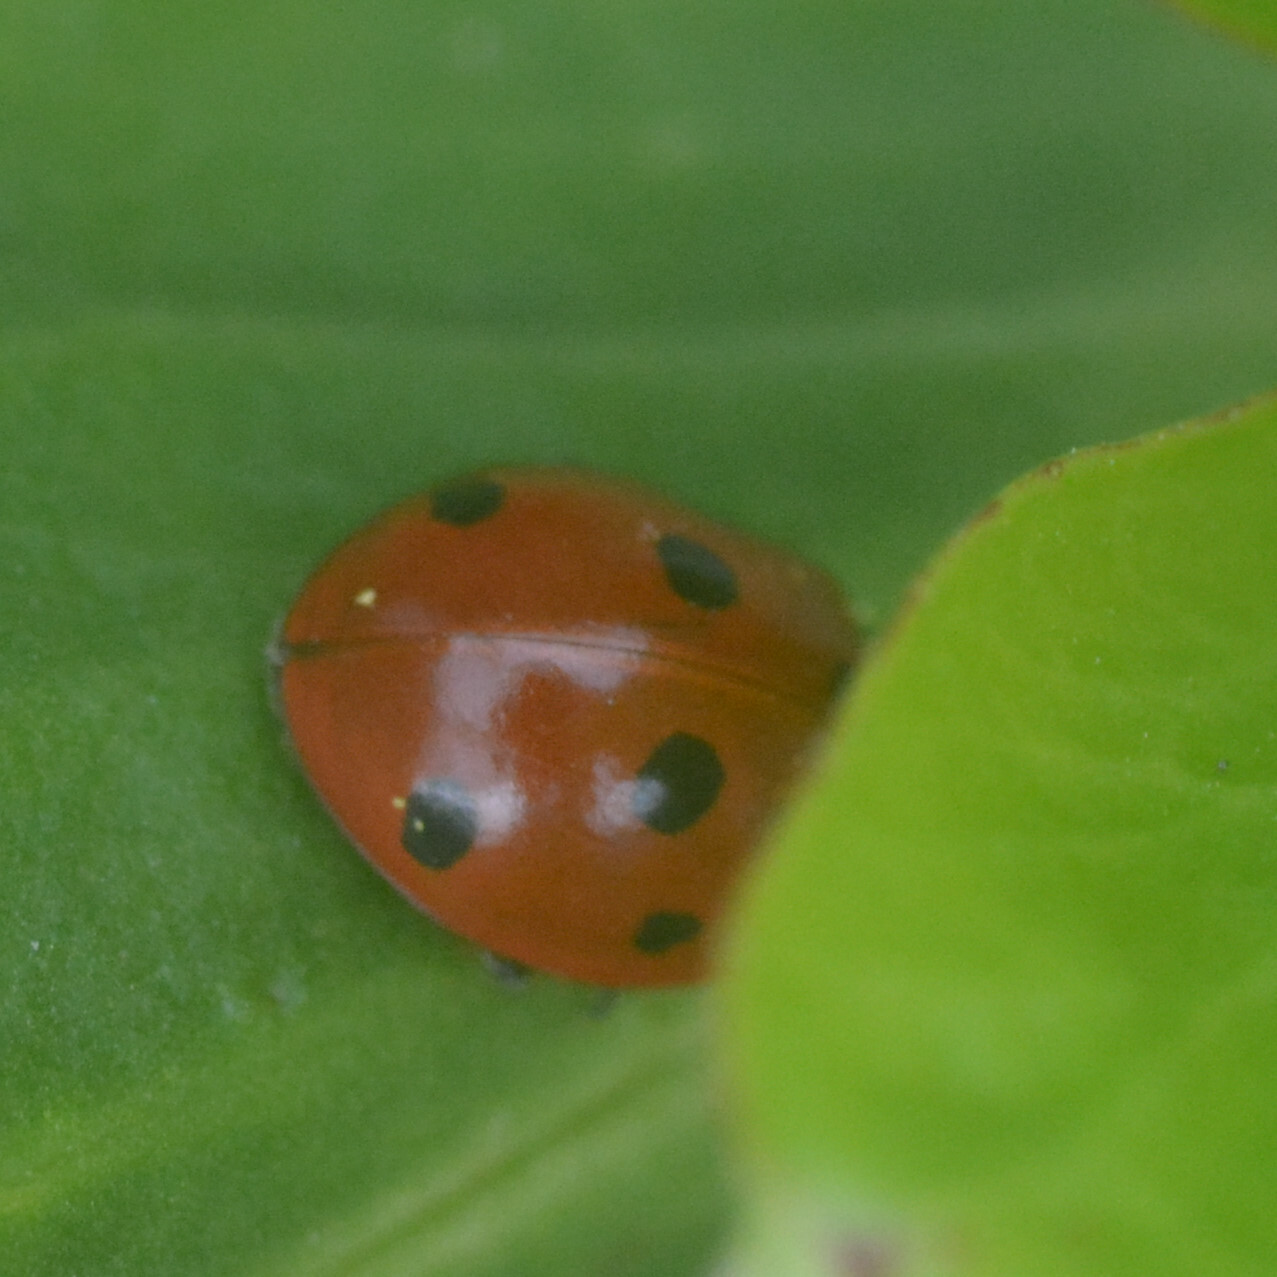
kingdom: Animalia
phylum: Arthropoda
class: Insecta
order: Coleoptera
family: Coccinellidae
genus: Coccinella
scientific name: Coccinella septempunctata
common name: Sevenspotted lady beetle
